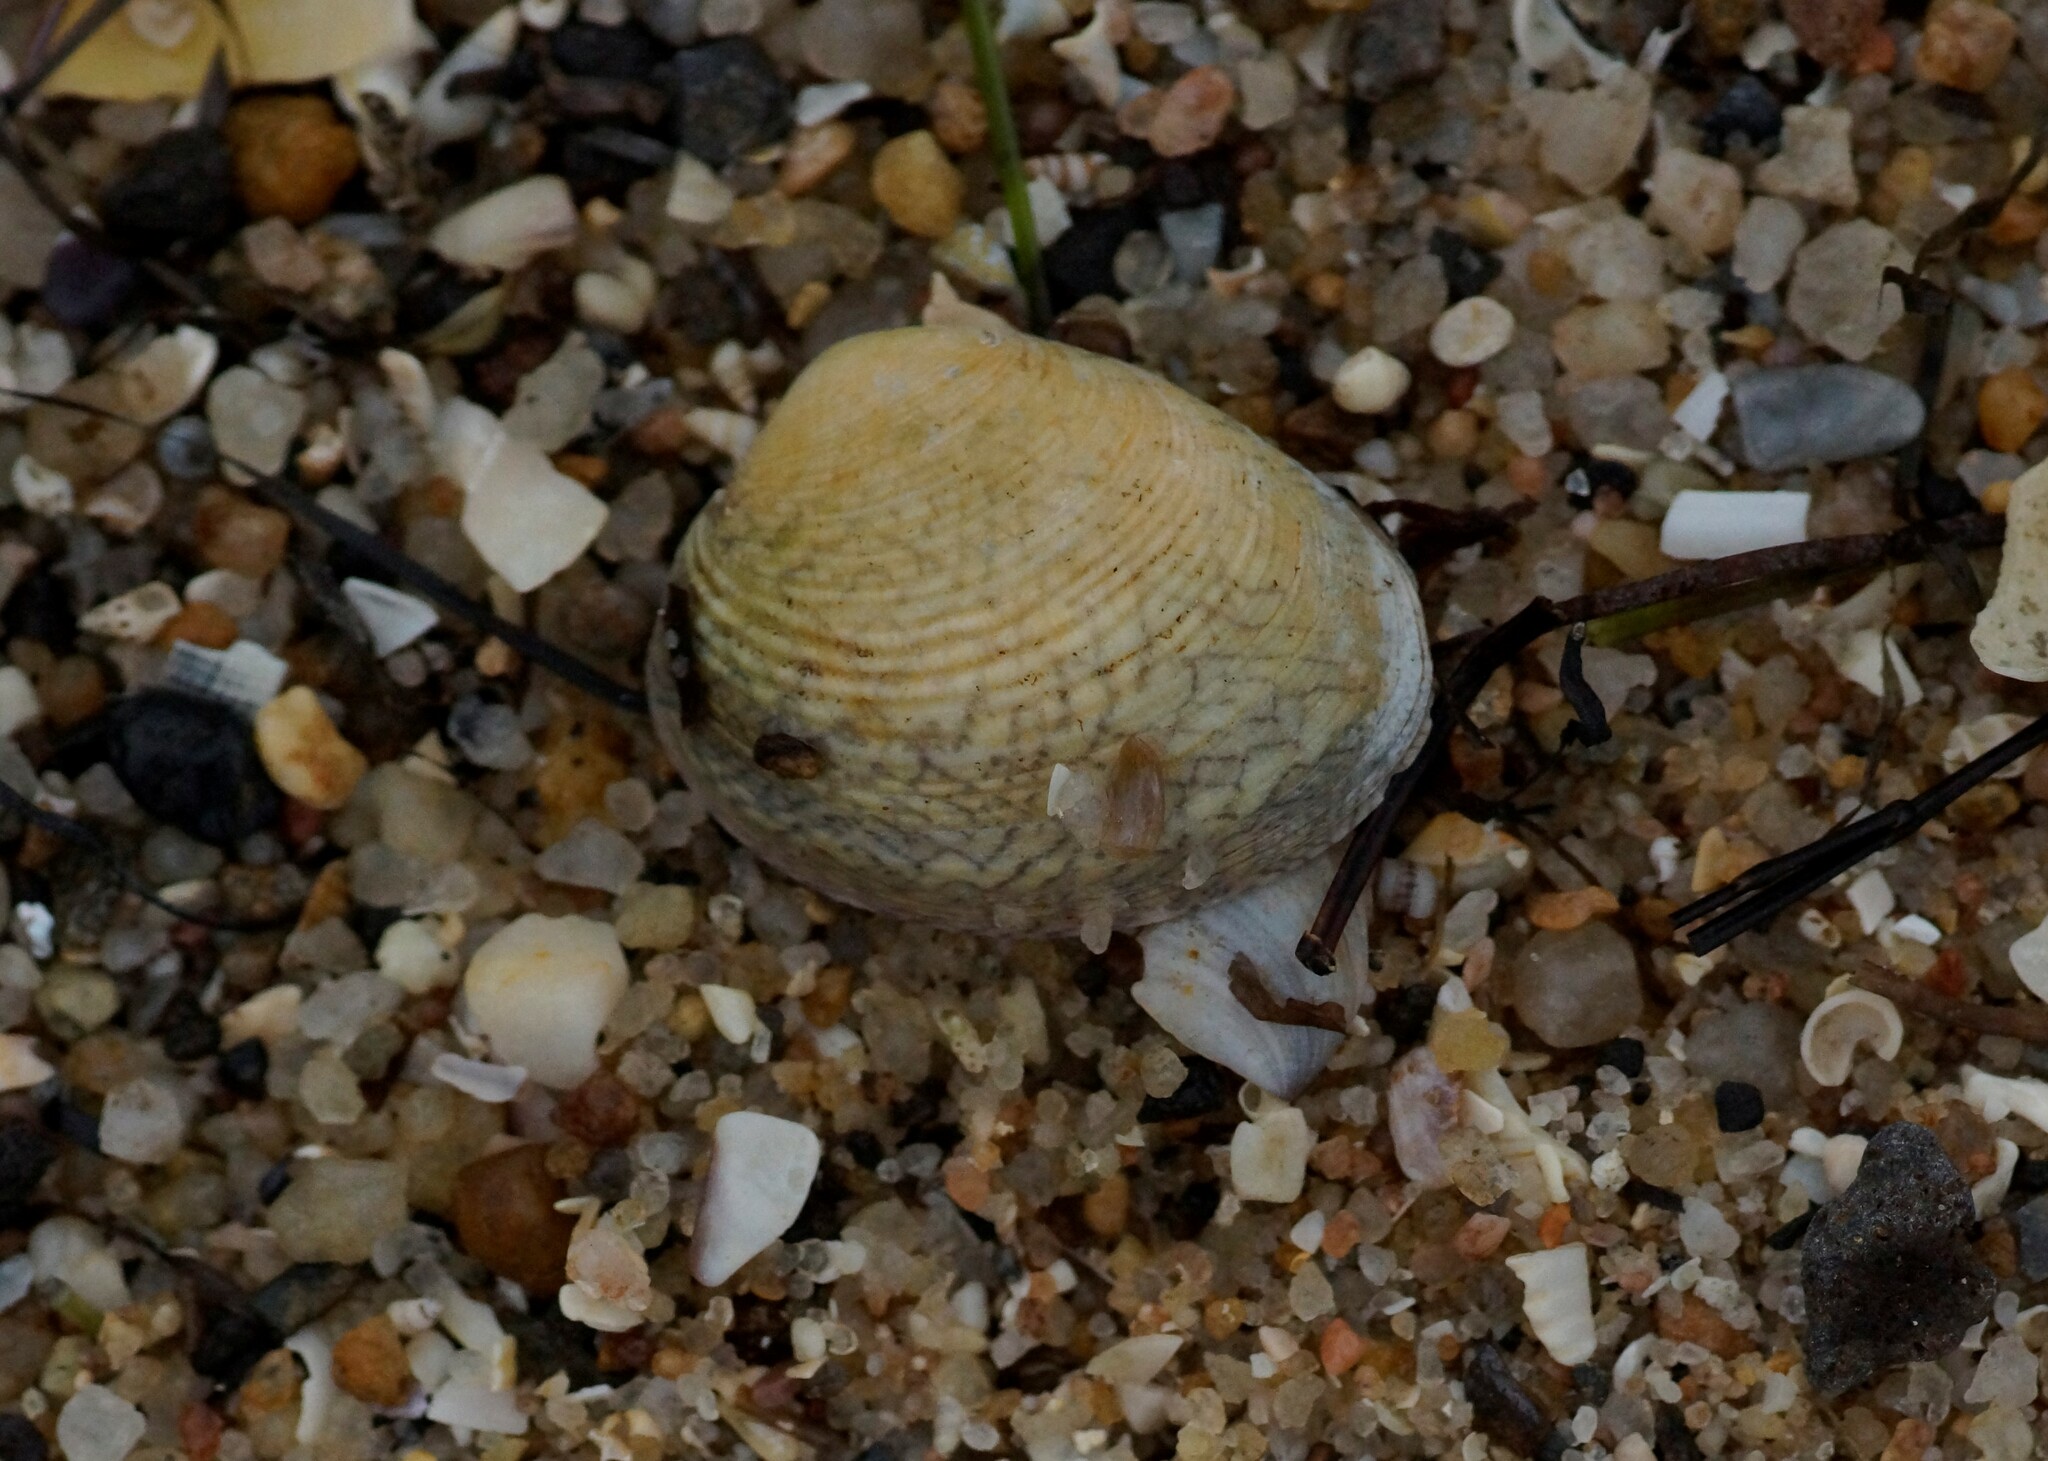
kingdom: Animalia
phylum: Mollusca
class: Bivalvia
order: Venerida
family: Veneridae
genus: Katelysia
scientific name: Katelysia rhytiphora
